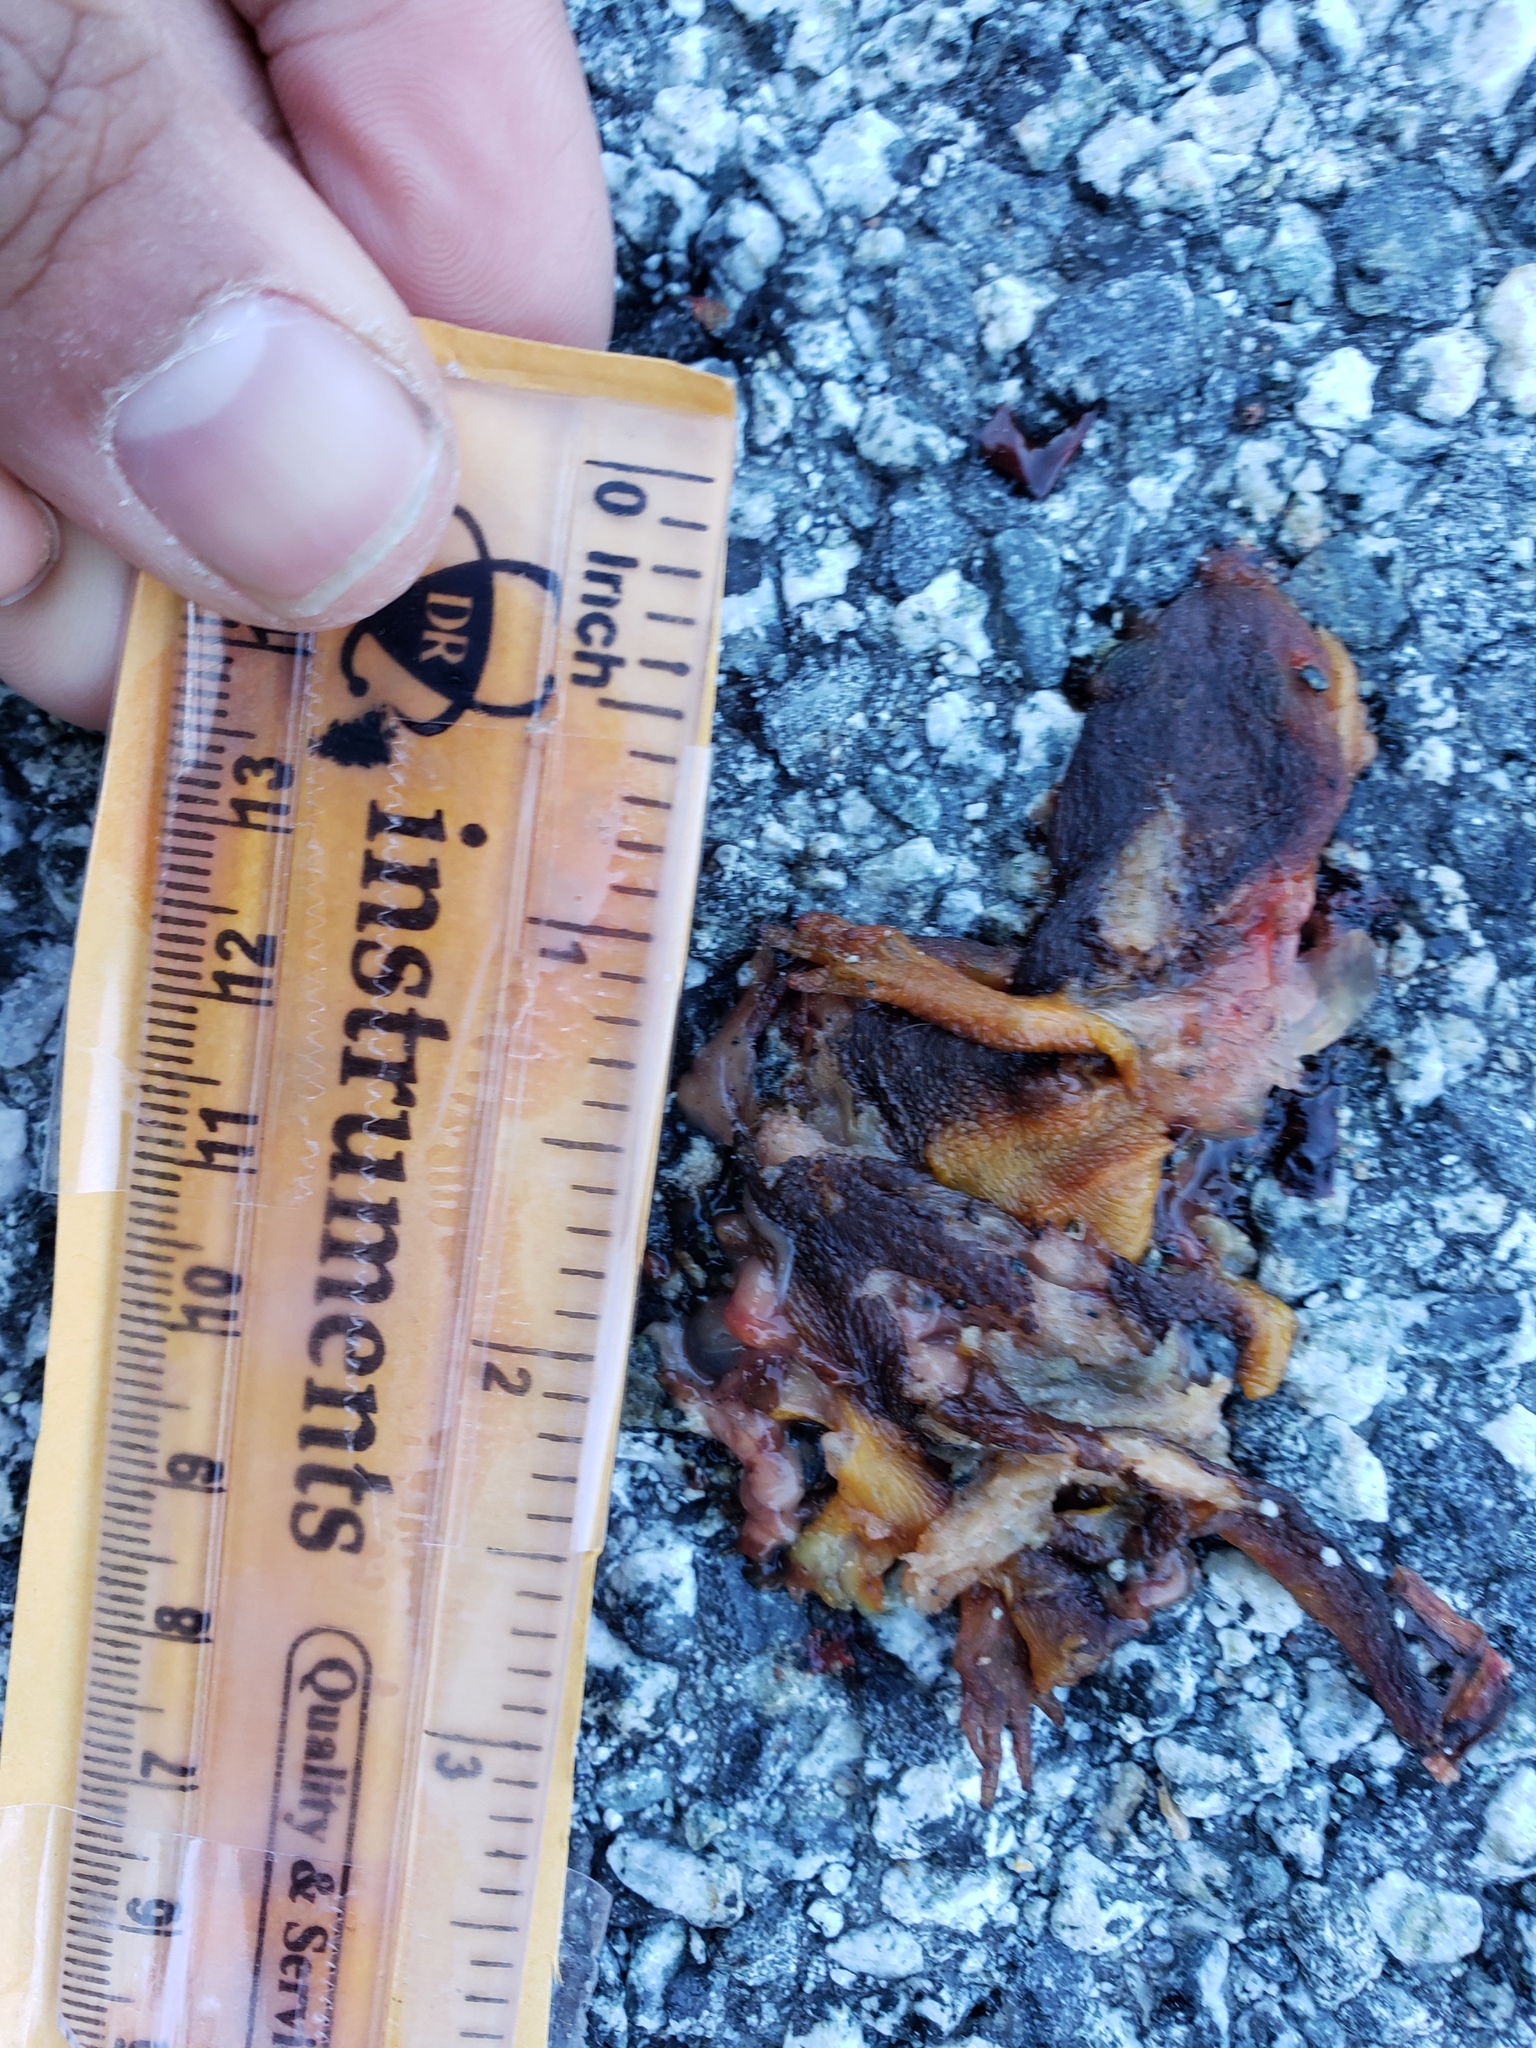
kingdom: Animalia
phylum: Chordata
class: Amphibia
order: Caudata
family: Salamandridae
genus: Taricha
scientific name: Taricha
